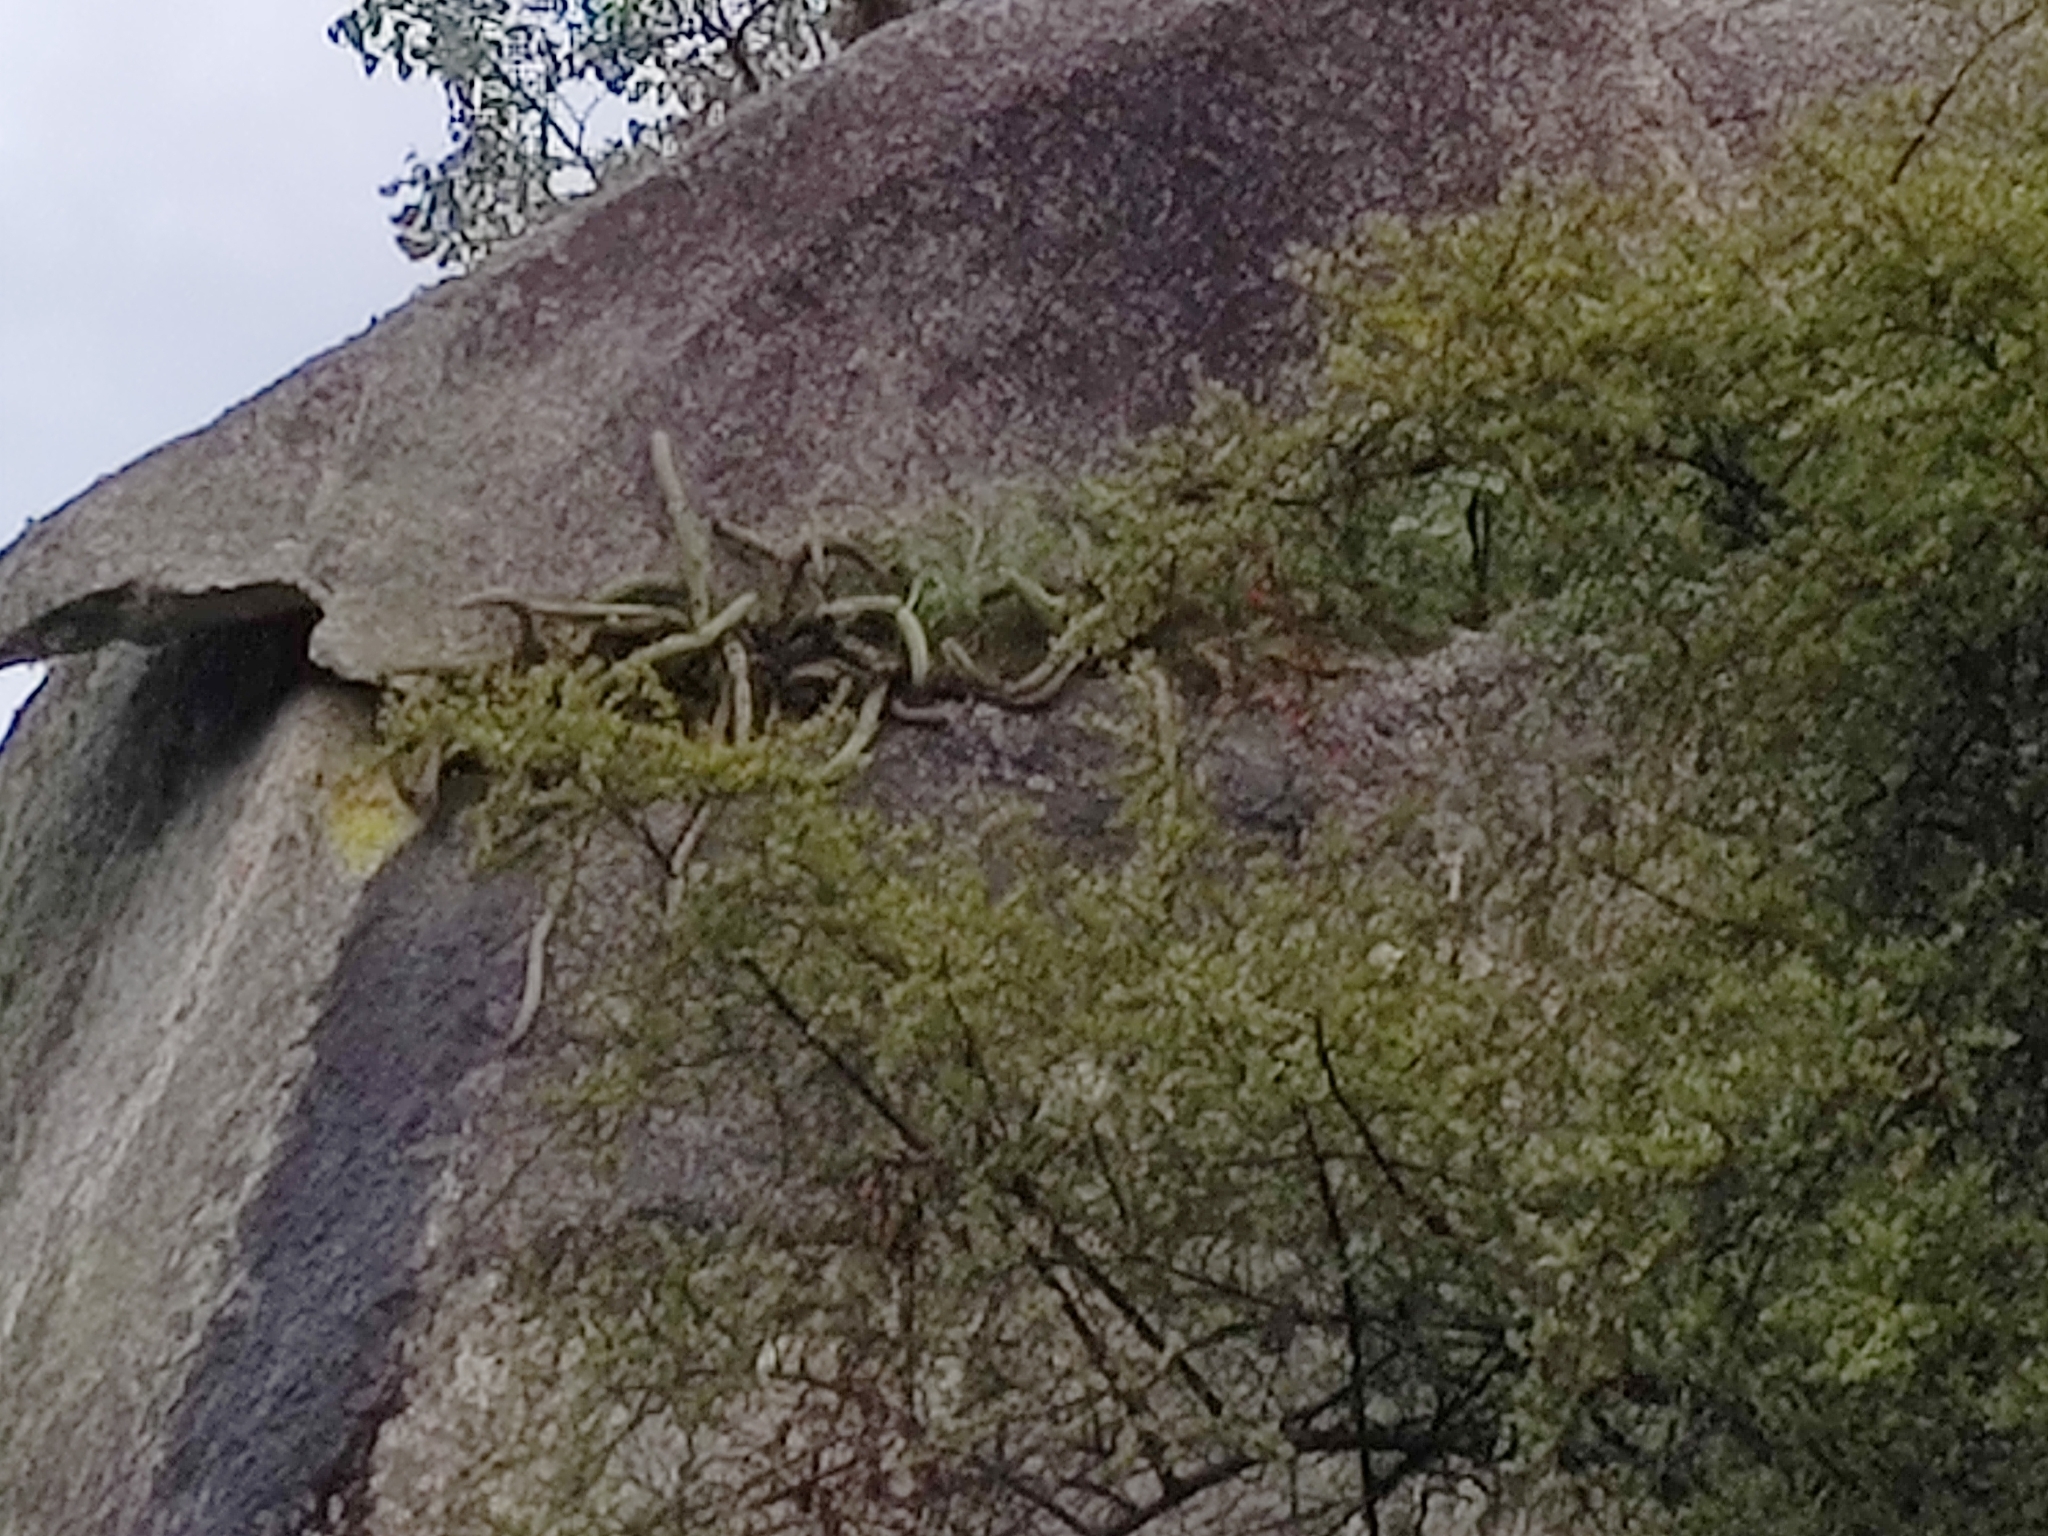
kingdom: Plantae
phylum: Tracheophyta
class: Magnoliopsida
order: Caryophyllales
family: Cactaceae
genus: Echinocereus
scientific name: Echinocereus pensilis
